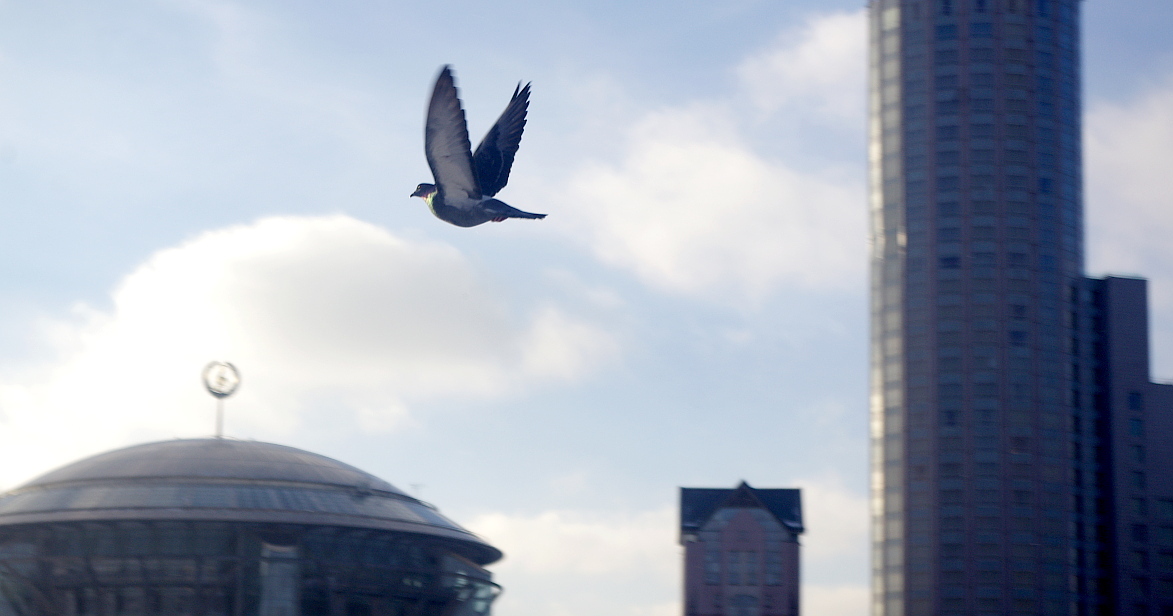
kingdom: Animalia
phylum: Chordata
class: Aves
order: Columbiformes
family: Columbidae
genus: Columba
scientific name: Columba livia
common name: Rock pigeon
